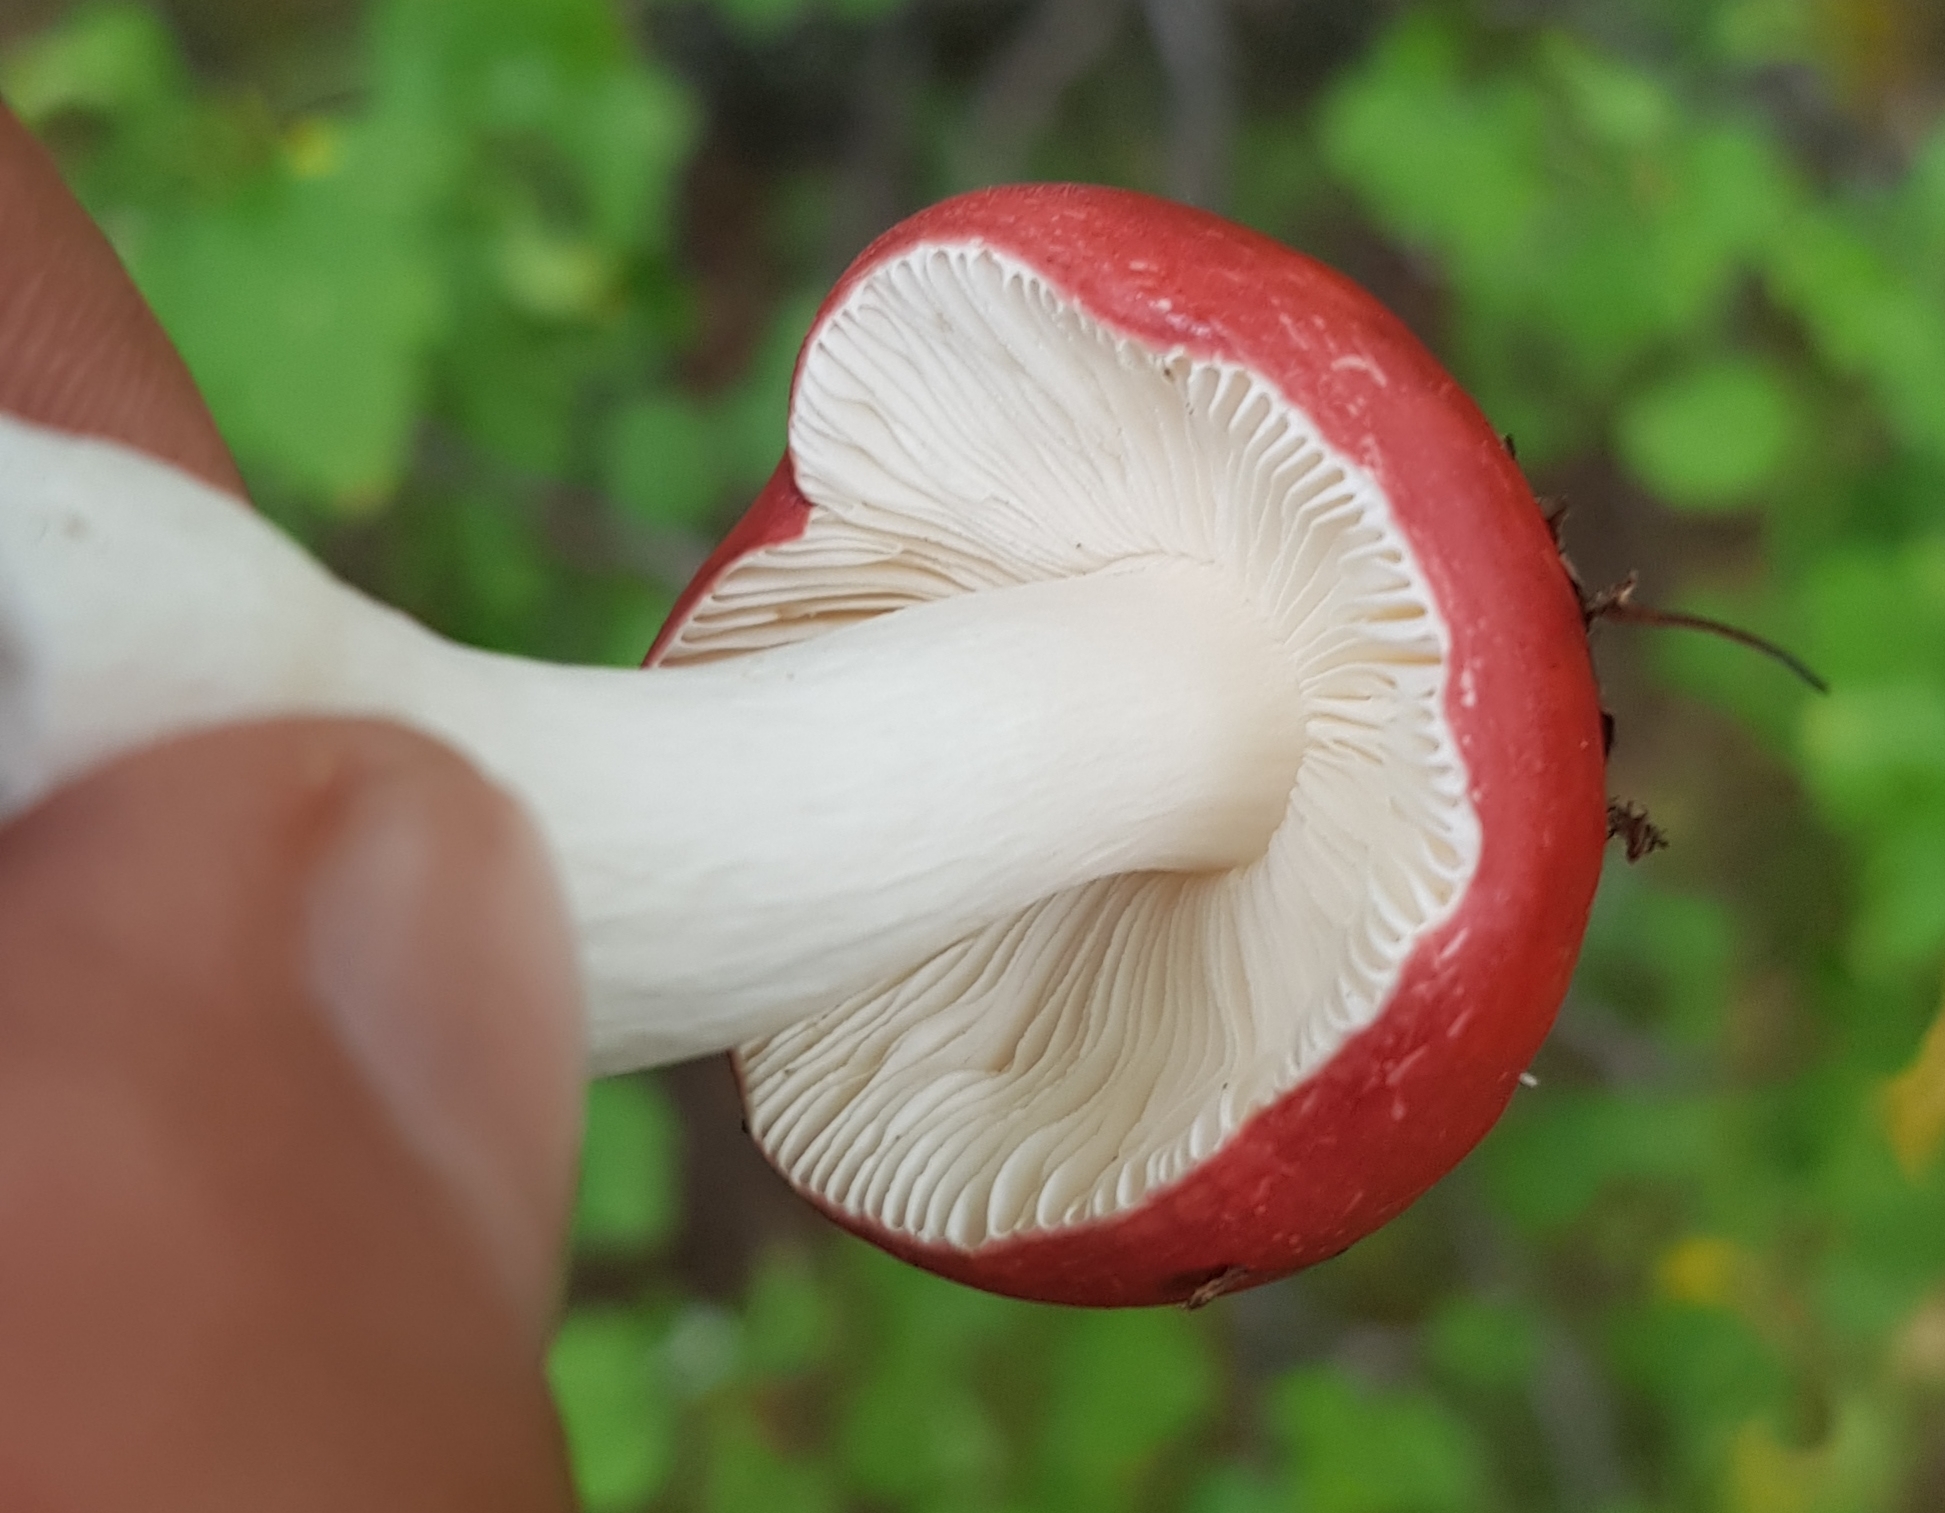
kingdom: Fungi
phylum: Basidiomycota
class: Agaricomycetes
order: Russulales
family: Russulaceae
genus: Russula
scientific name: Russula
